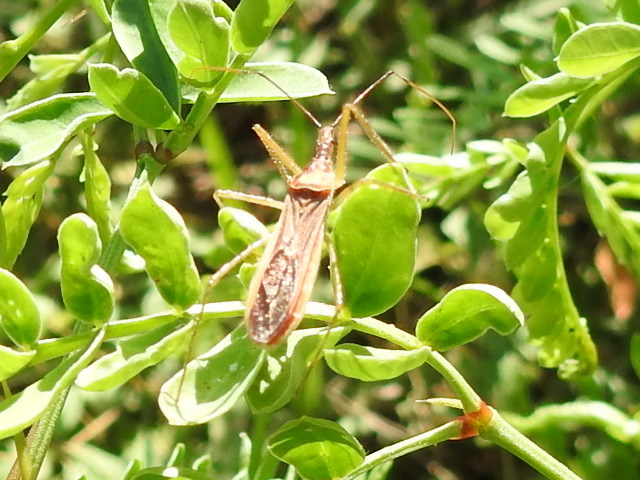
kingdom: Animalia
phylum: Arthropoda
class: Insecta
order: Hemiptera
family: Reduviidae
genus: Zelus
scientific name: Zelus cervicalis
